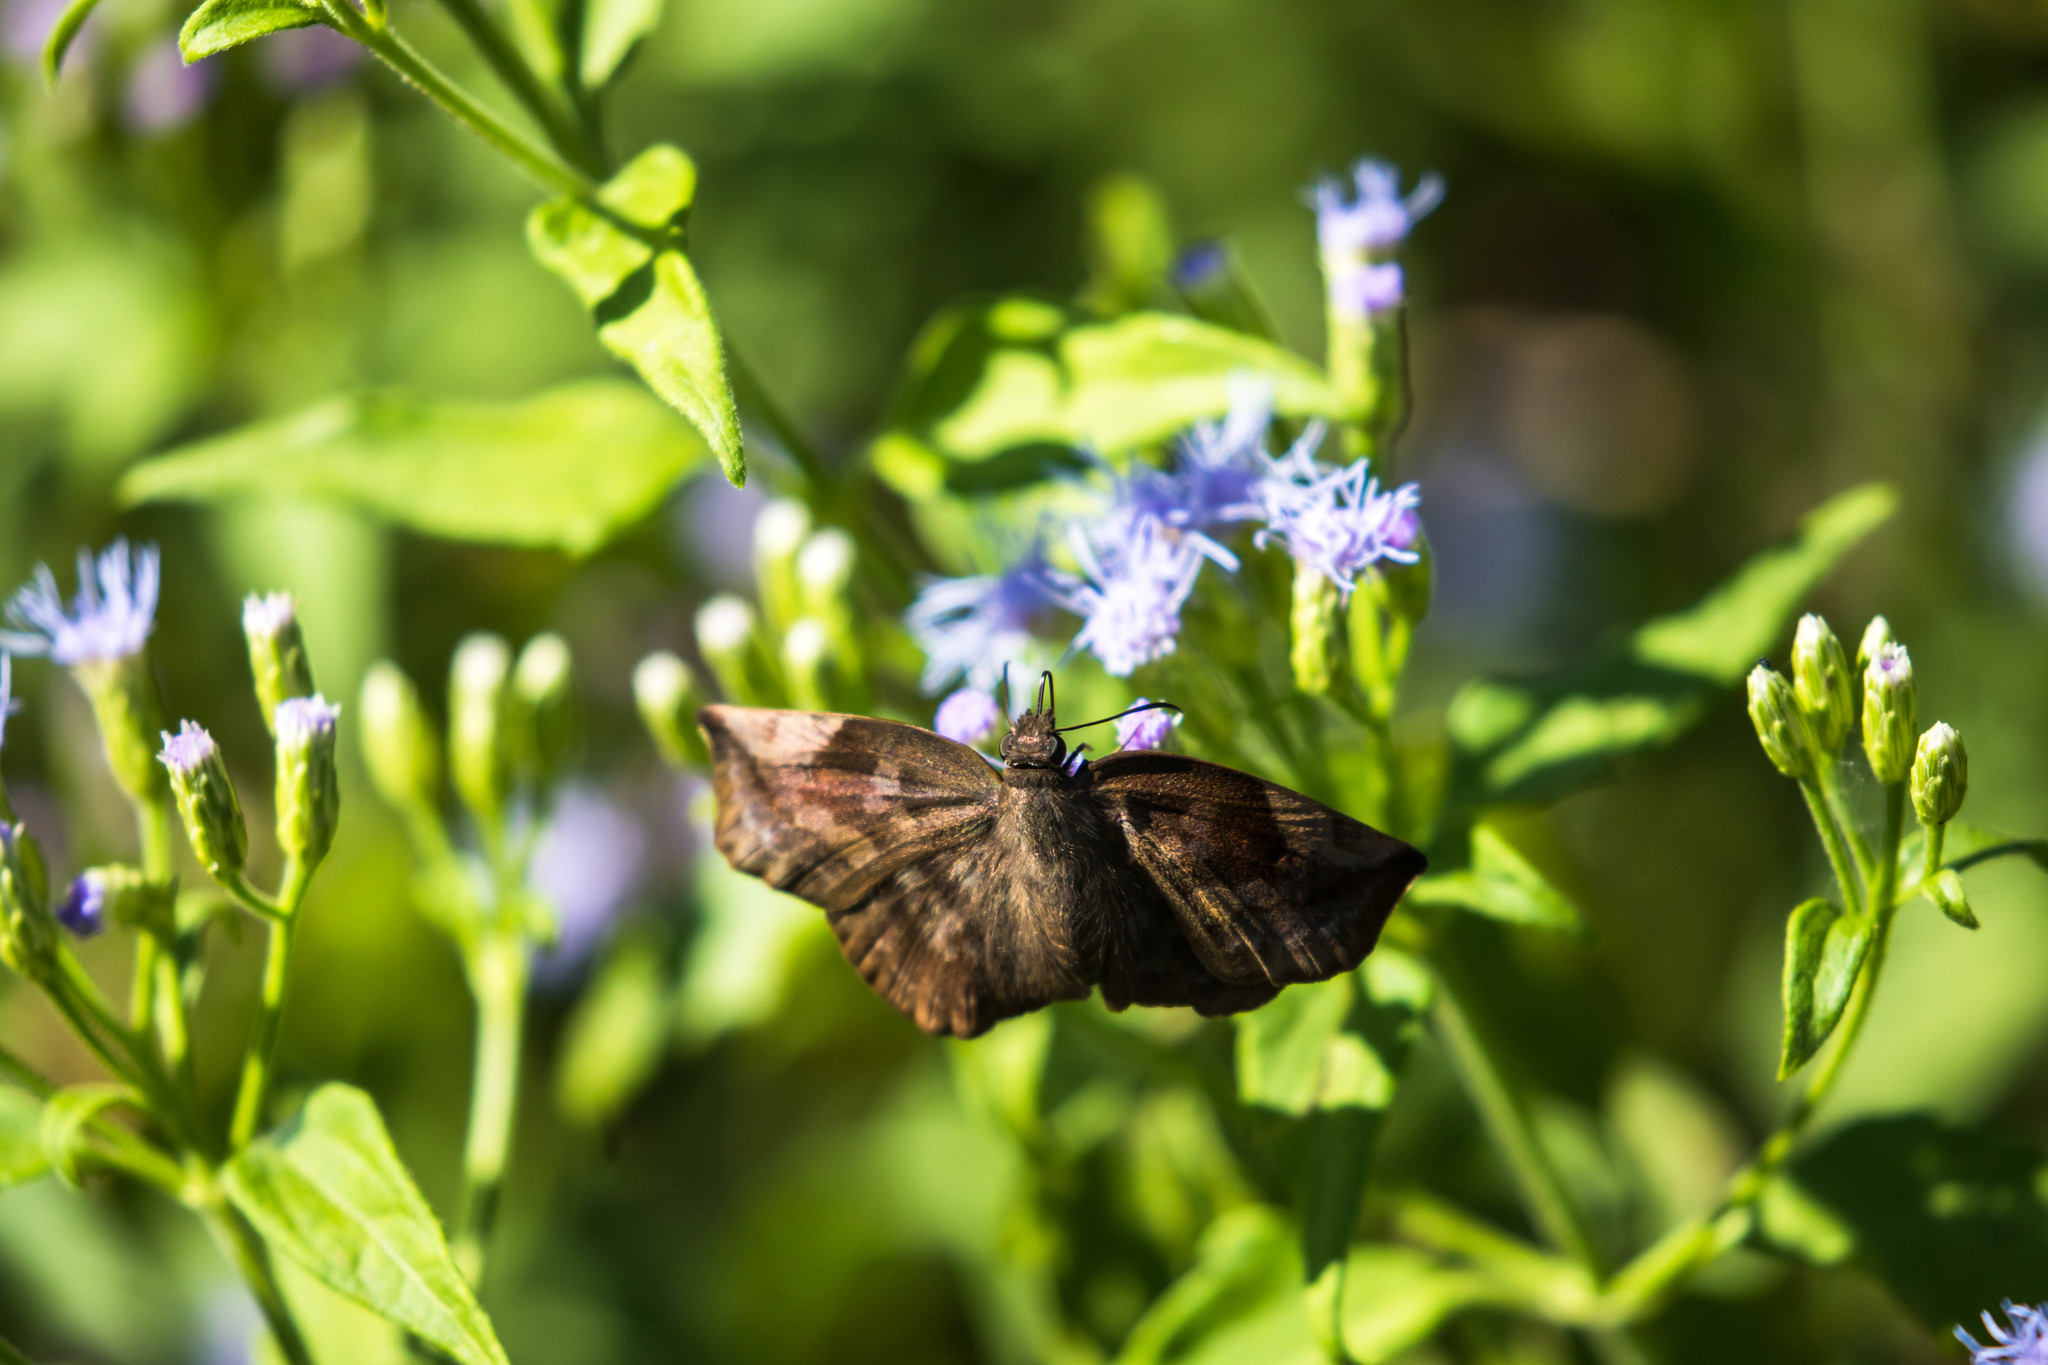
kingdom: Animalia
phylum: Arthropoda
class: Insecta
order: Lepidoptera
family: Hesperiidae
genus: Achlyodes
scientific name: Achlyodes thraso
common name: Sickle-winged skipper
